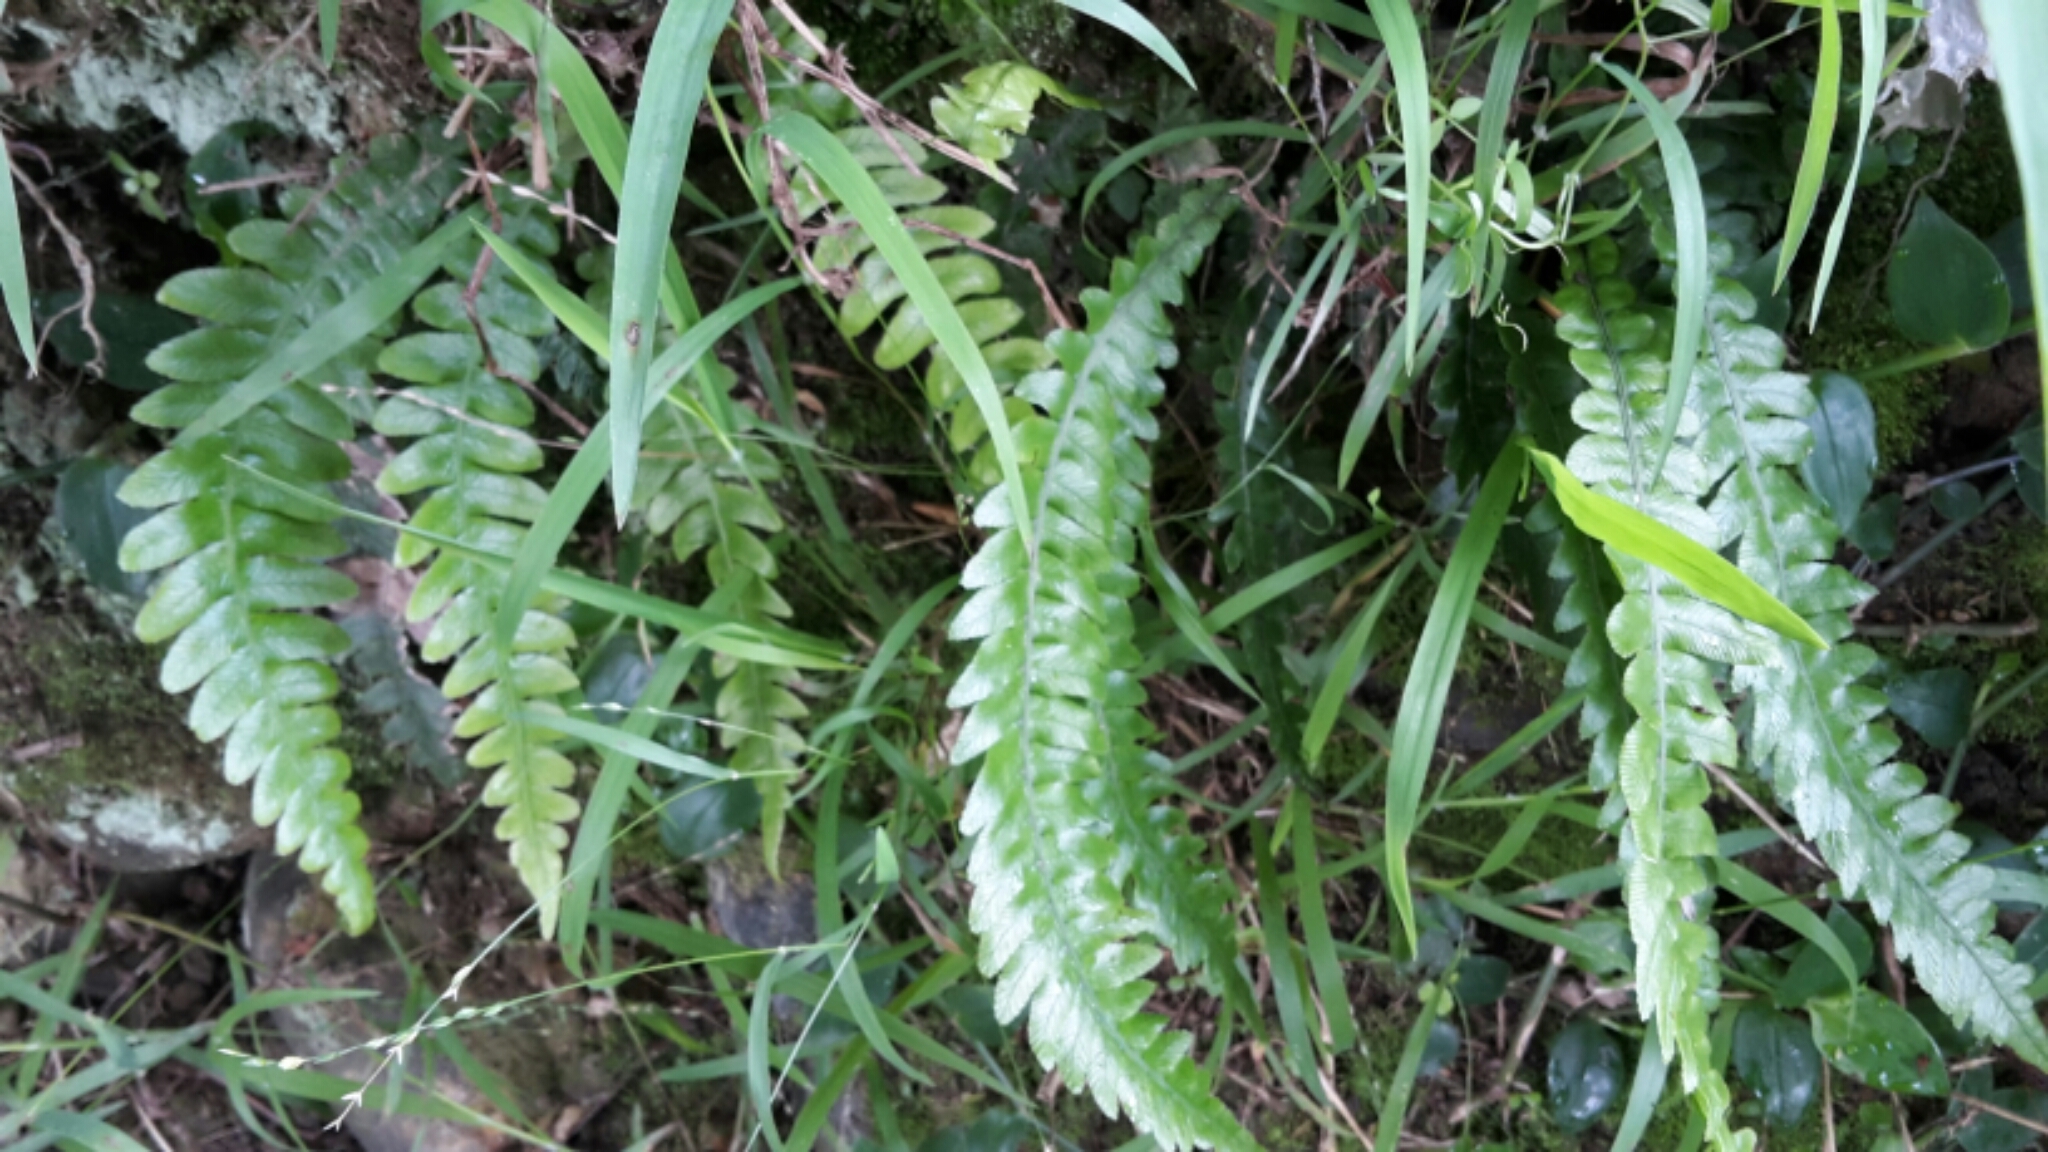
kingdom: Plantae
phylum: Tracheophyta
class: Polypodiopsida
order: Polypodiales
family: Blechnaceae
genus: Austroblechnum
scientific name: Austroblechnum lanceolatum
